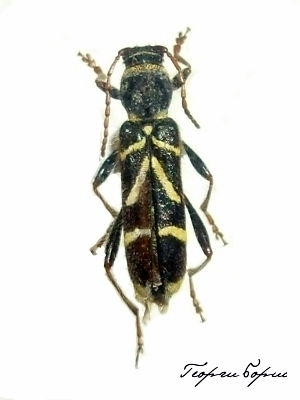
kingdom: Animalia
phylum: Arthropoda
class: Insecta
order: Coleoptera
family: Cerambycidae
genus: Cyrtoclytus
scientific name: Cyrtoclytus capra
